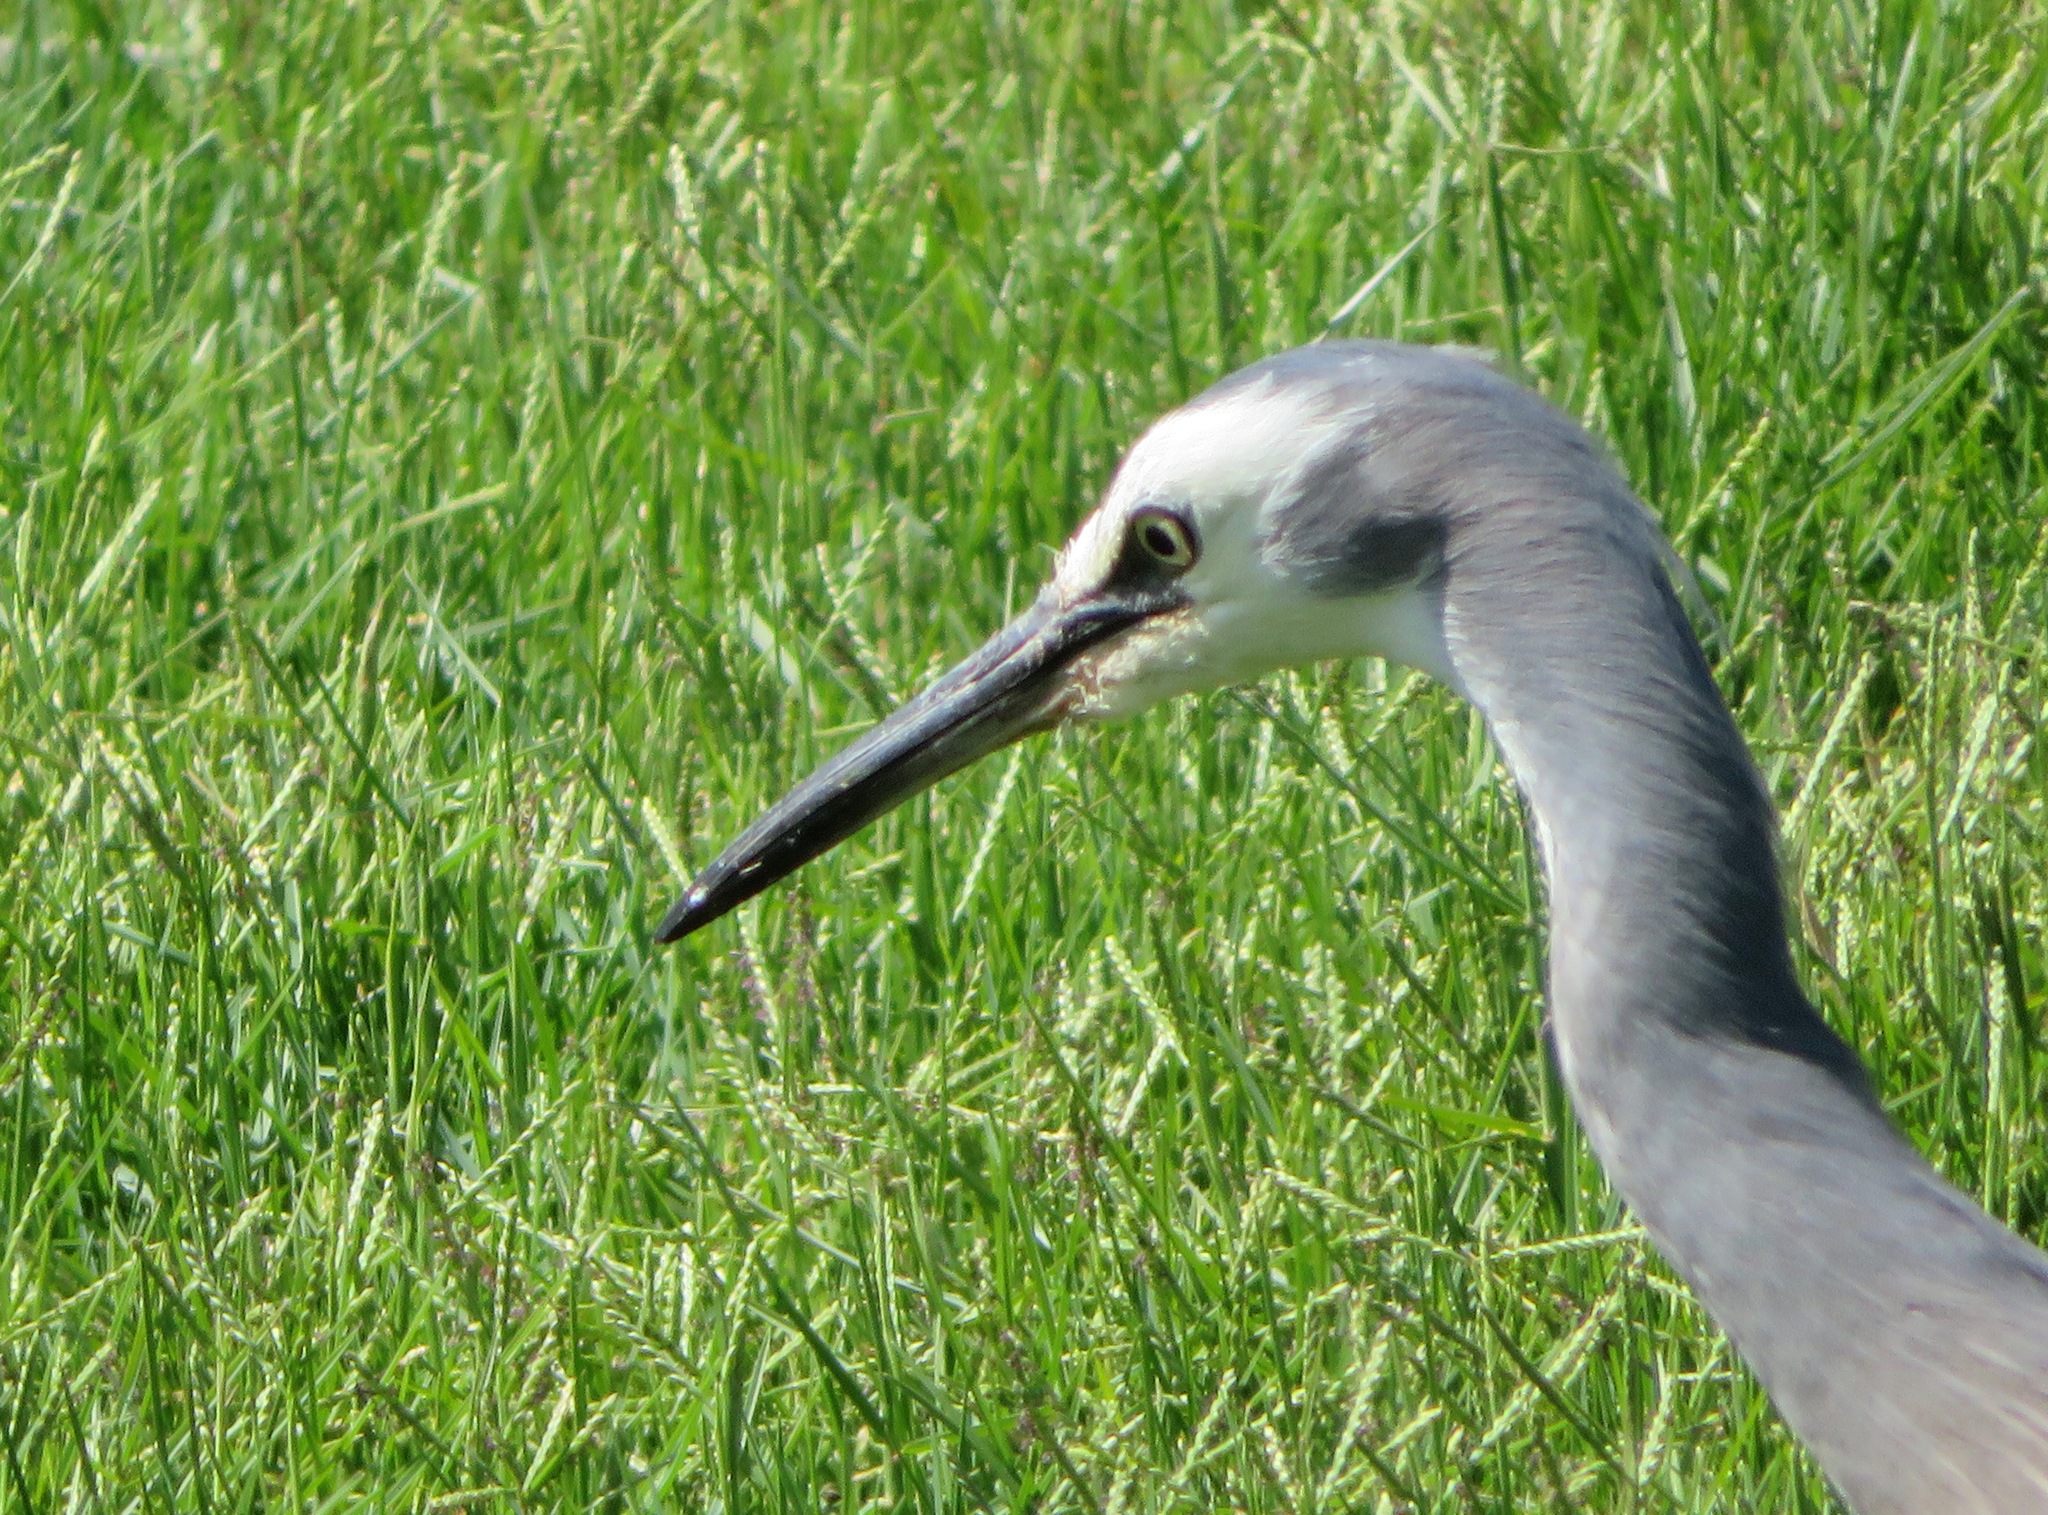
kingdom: Animalia
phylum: Chordata
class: Aves
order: Pelecaniformes
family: Ardeidae
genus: Egretta
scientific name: Egretta novaehollandiae
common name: White-faced heron
